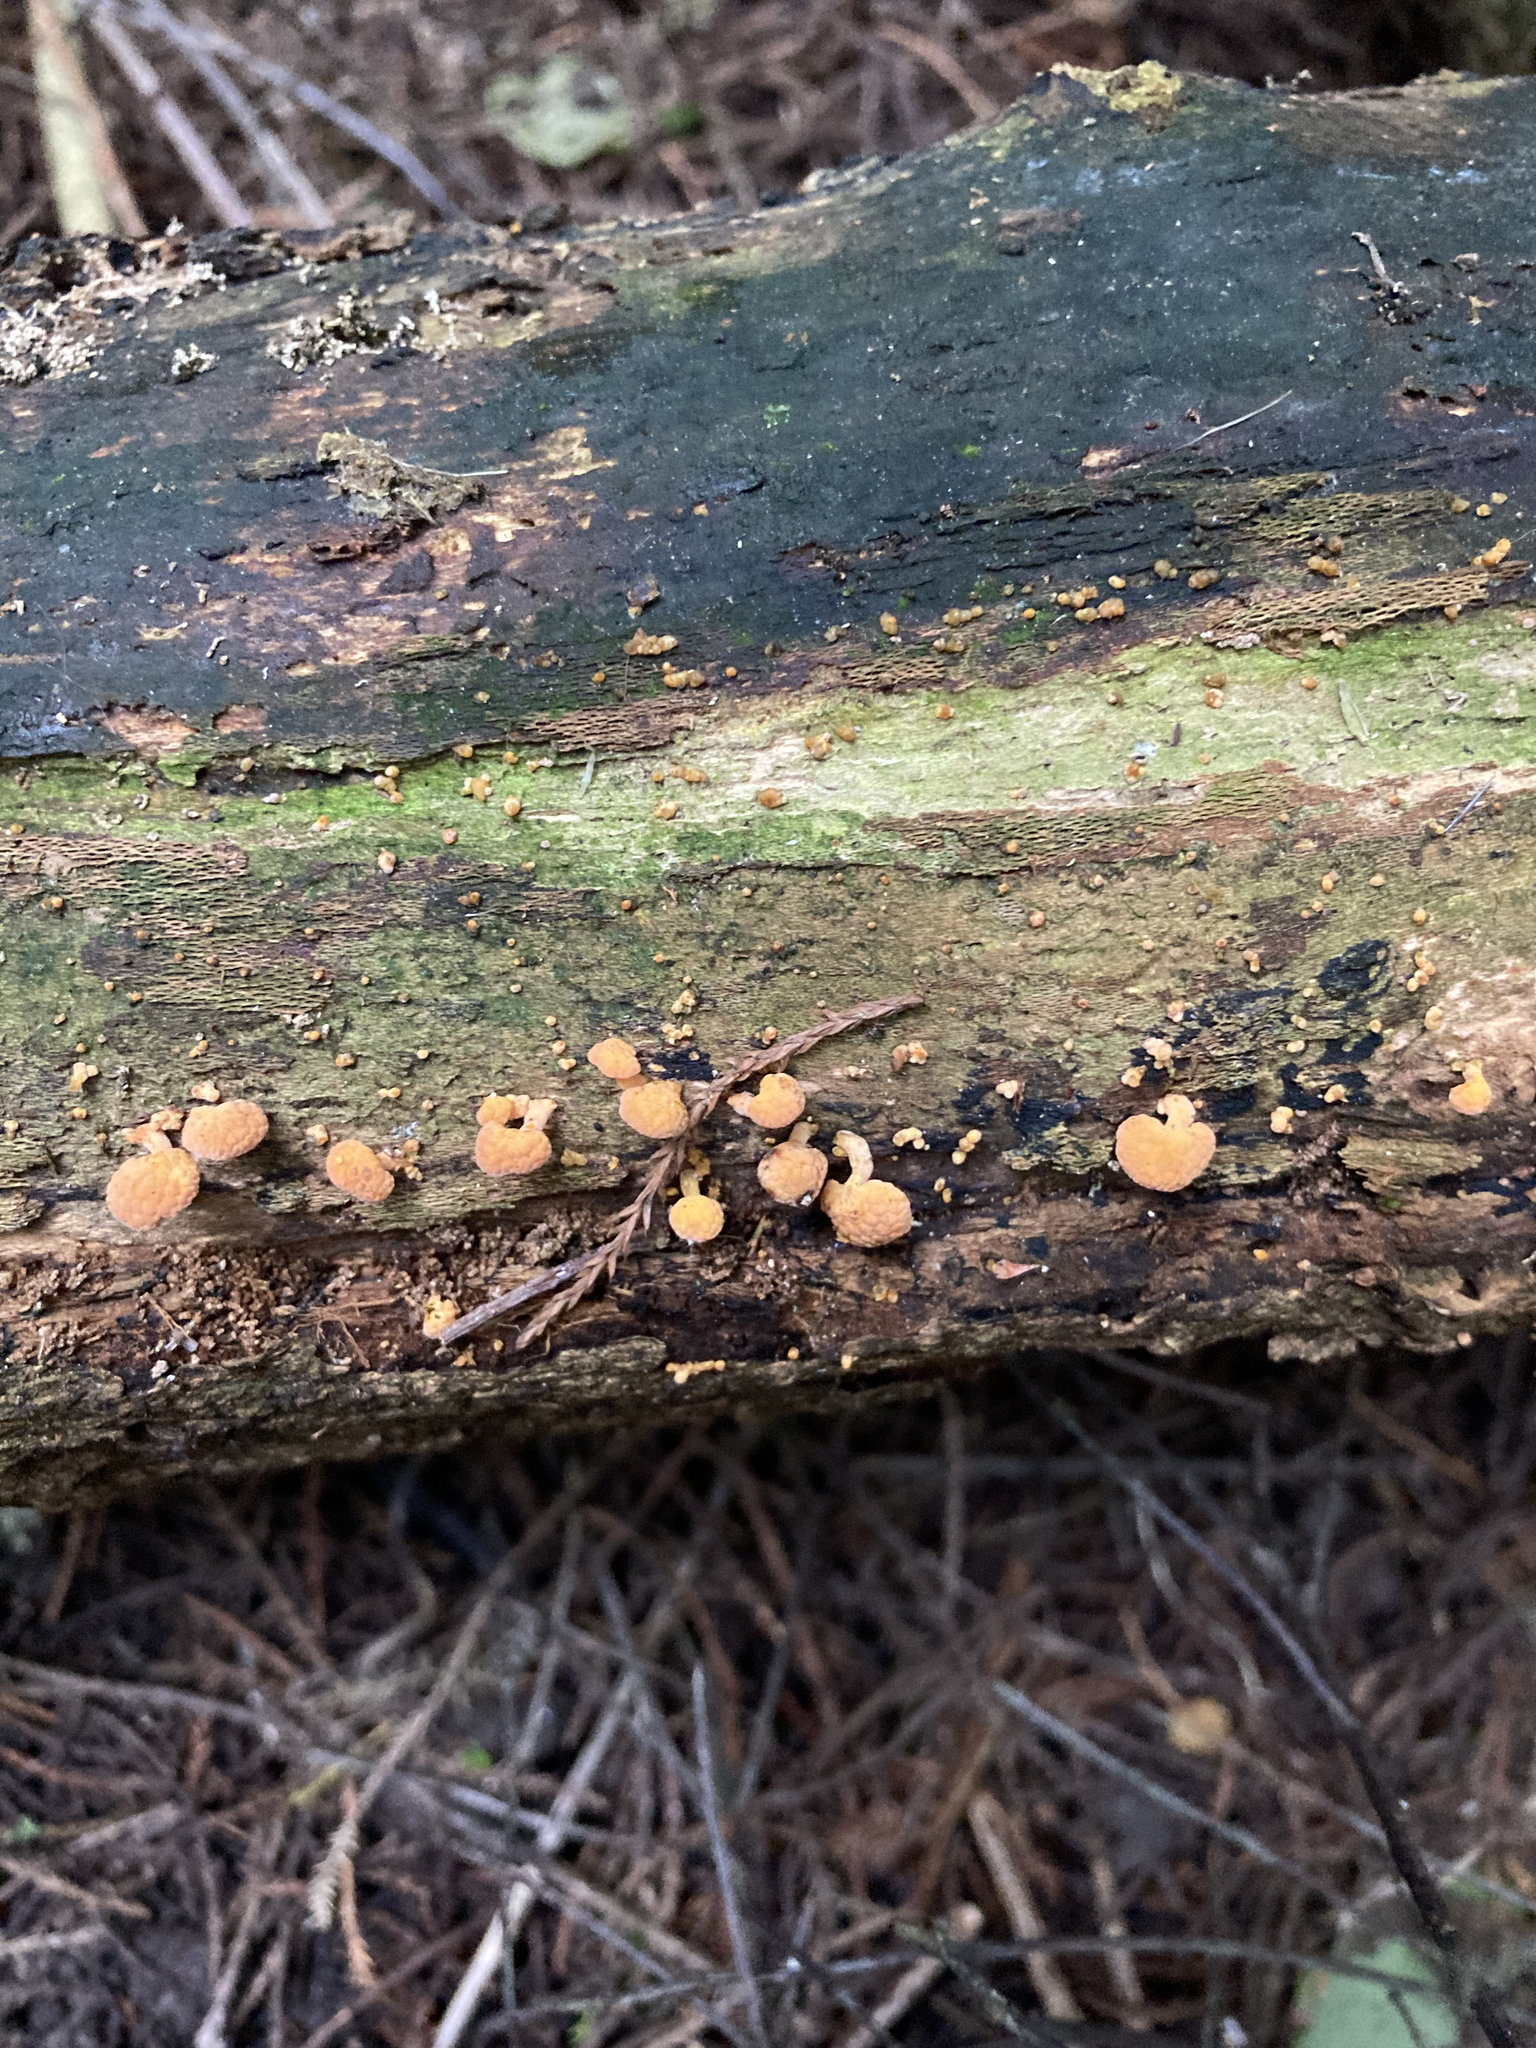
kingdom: Fungi
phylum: Basidiomycota
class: Agaricomycetes
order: Agaricales
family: Mycenaceae
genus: Favolaschia
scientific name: Favolaschia claudopus
